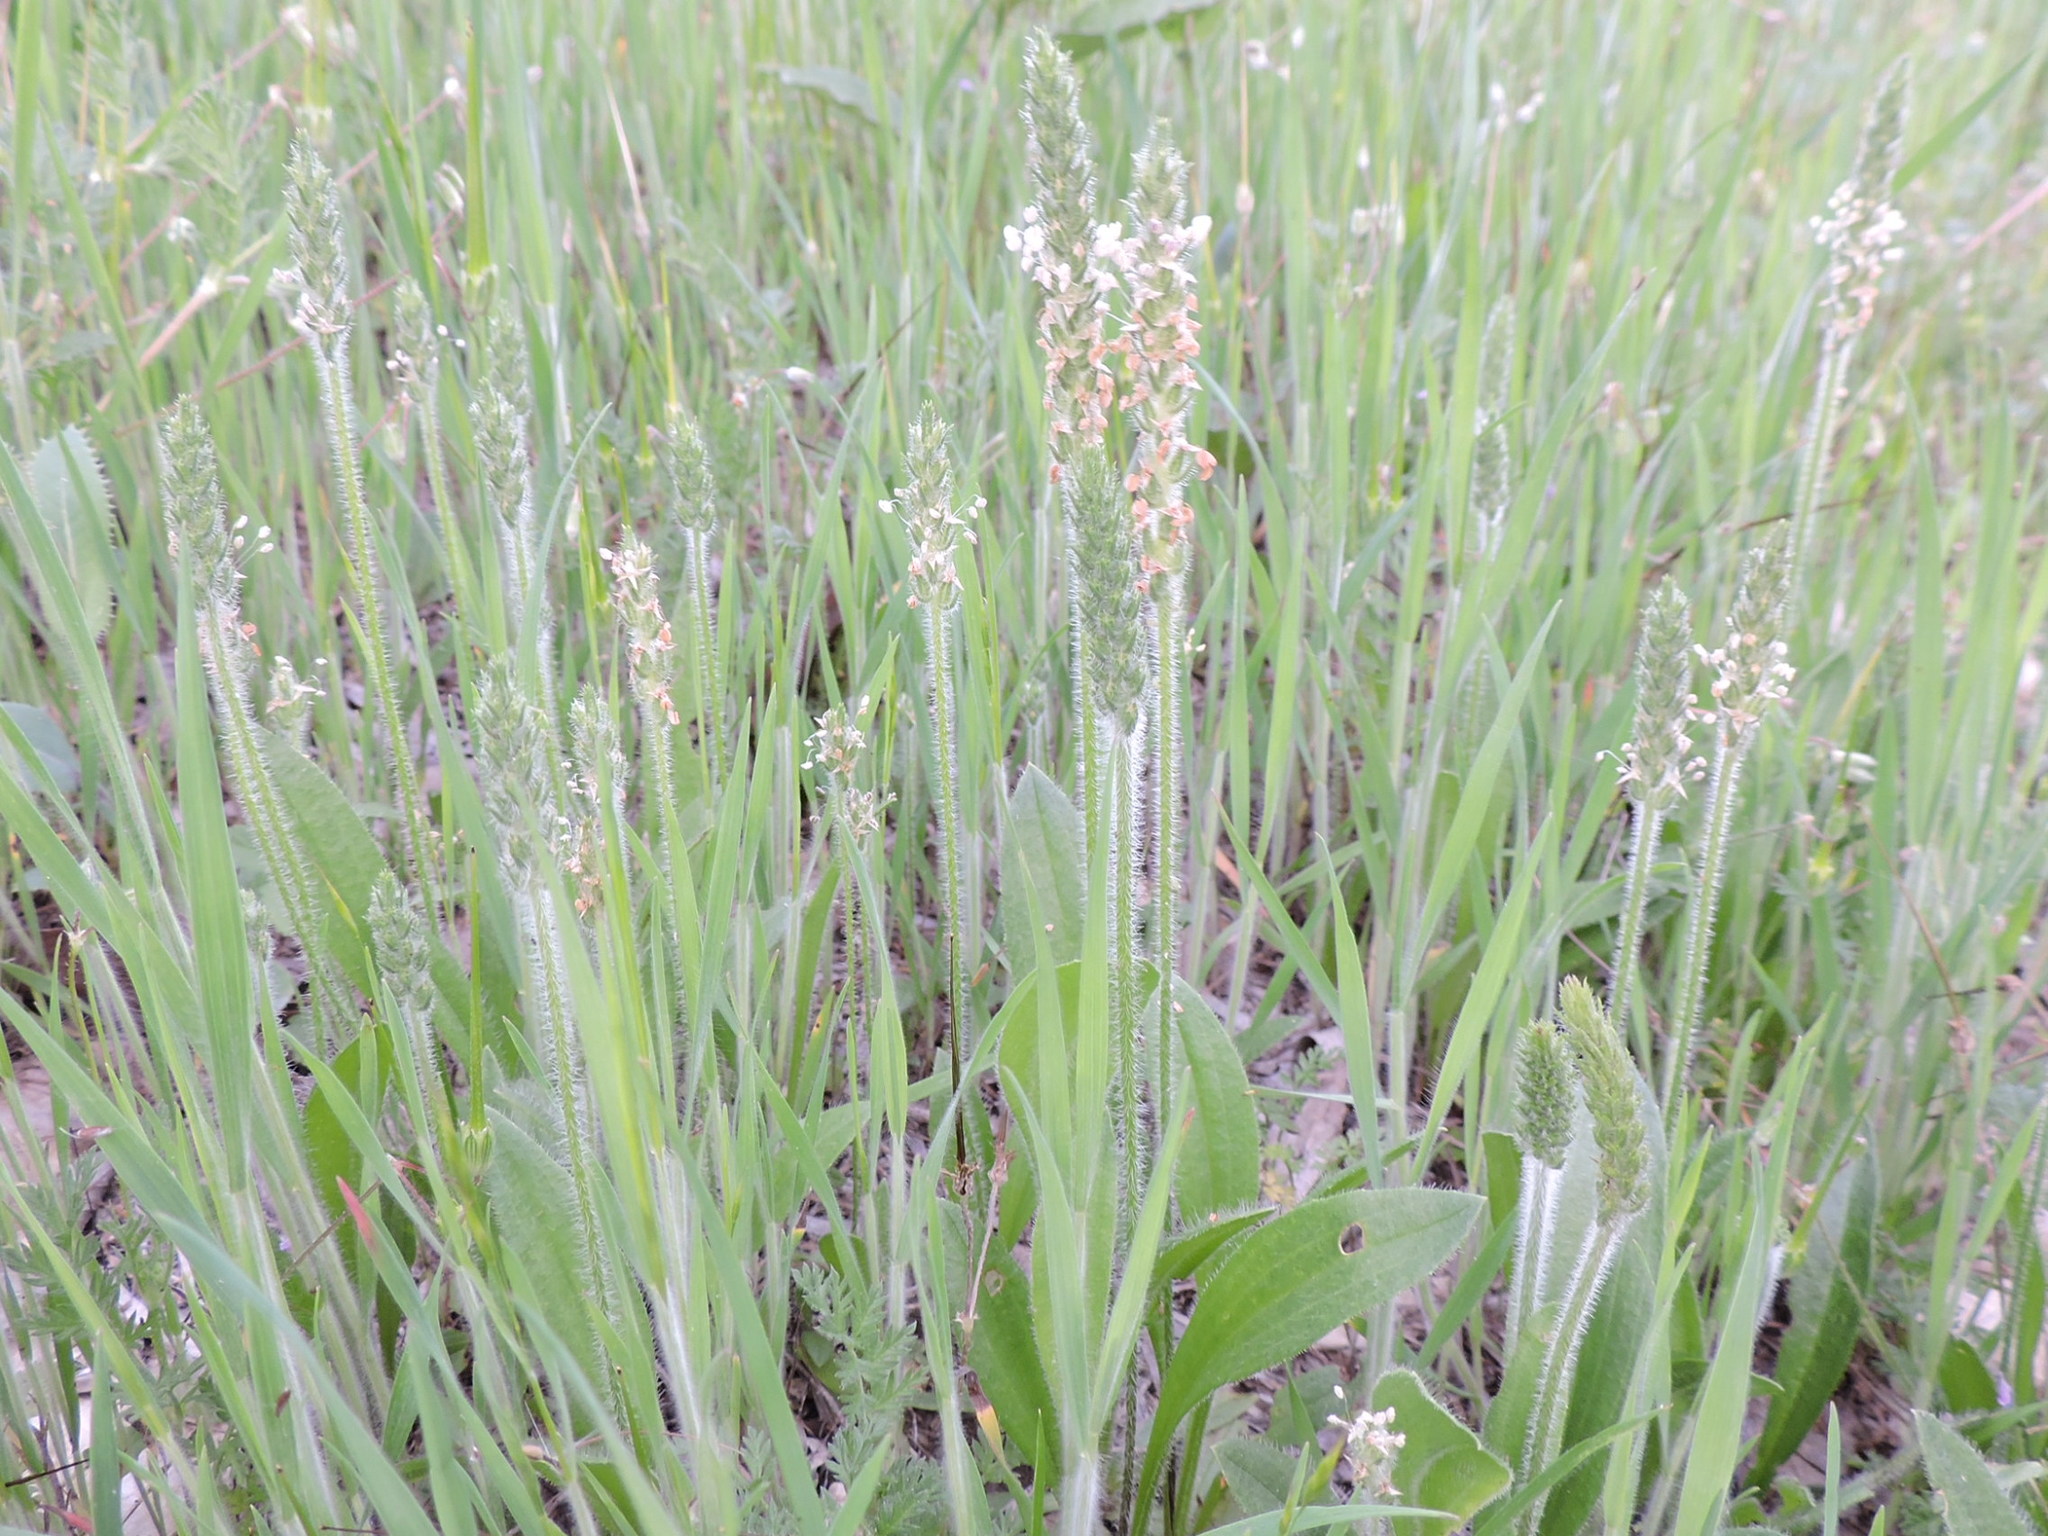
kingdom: Plantae
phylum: Tracheophyta
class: Magnoliopsida
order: Lamiales
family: Plantaginaceae
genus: Plantago
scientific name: Plantago virginica
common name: Hoary plantain
